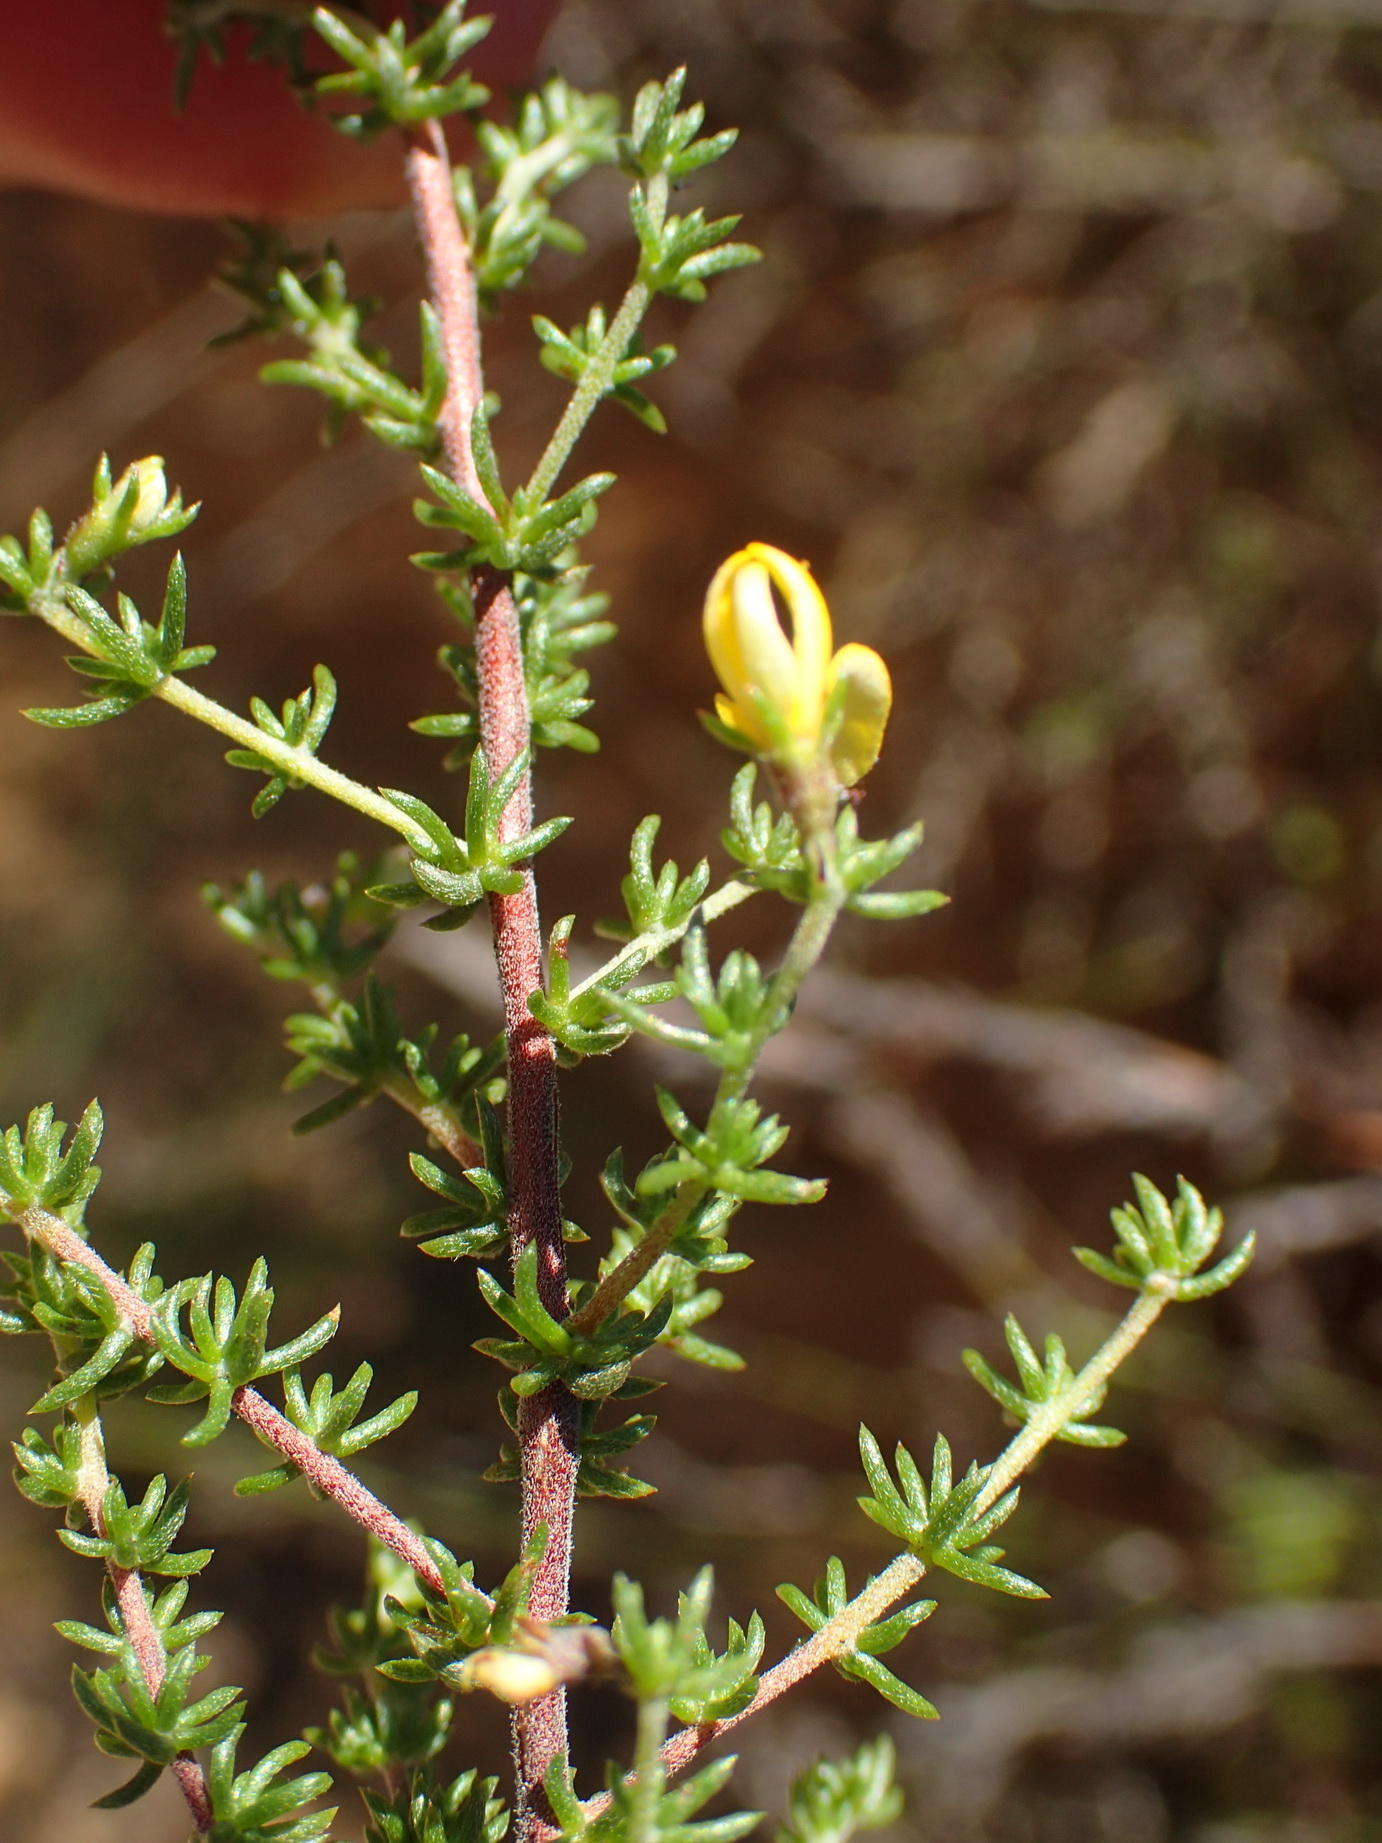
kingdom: Plantae
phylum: Tracheophyta
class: Magnoliopsida
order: Fabales
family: Fabaceae
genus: Aspalathus
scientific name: Aspalathus rubens
